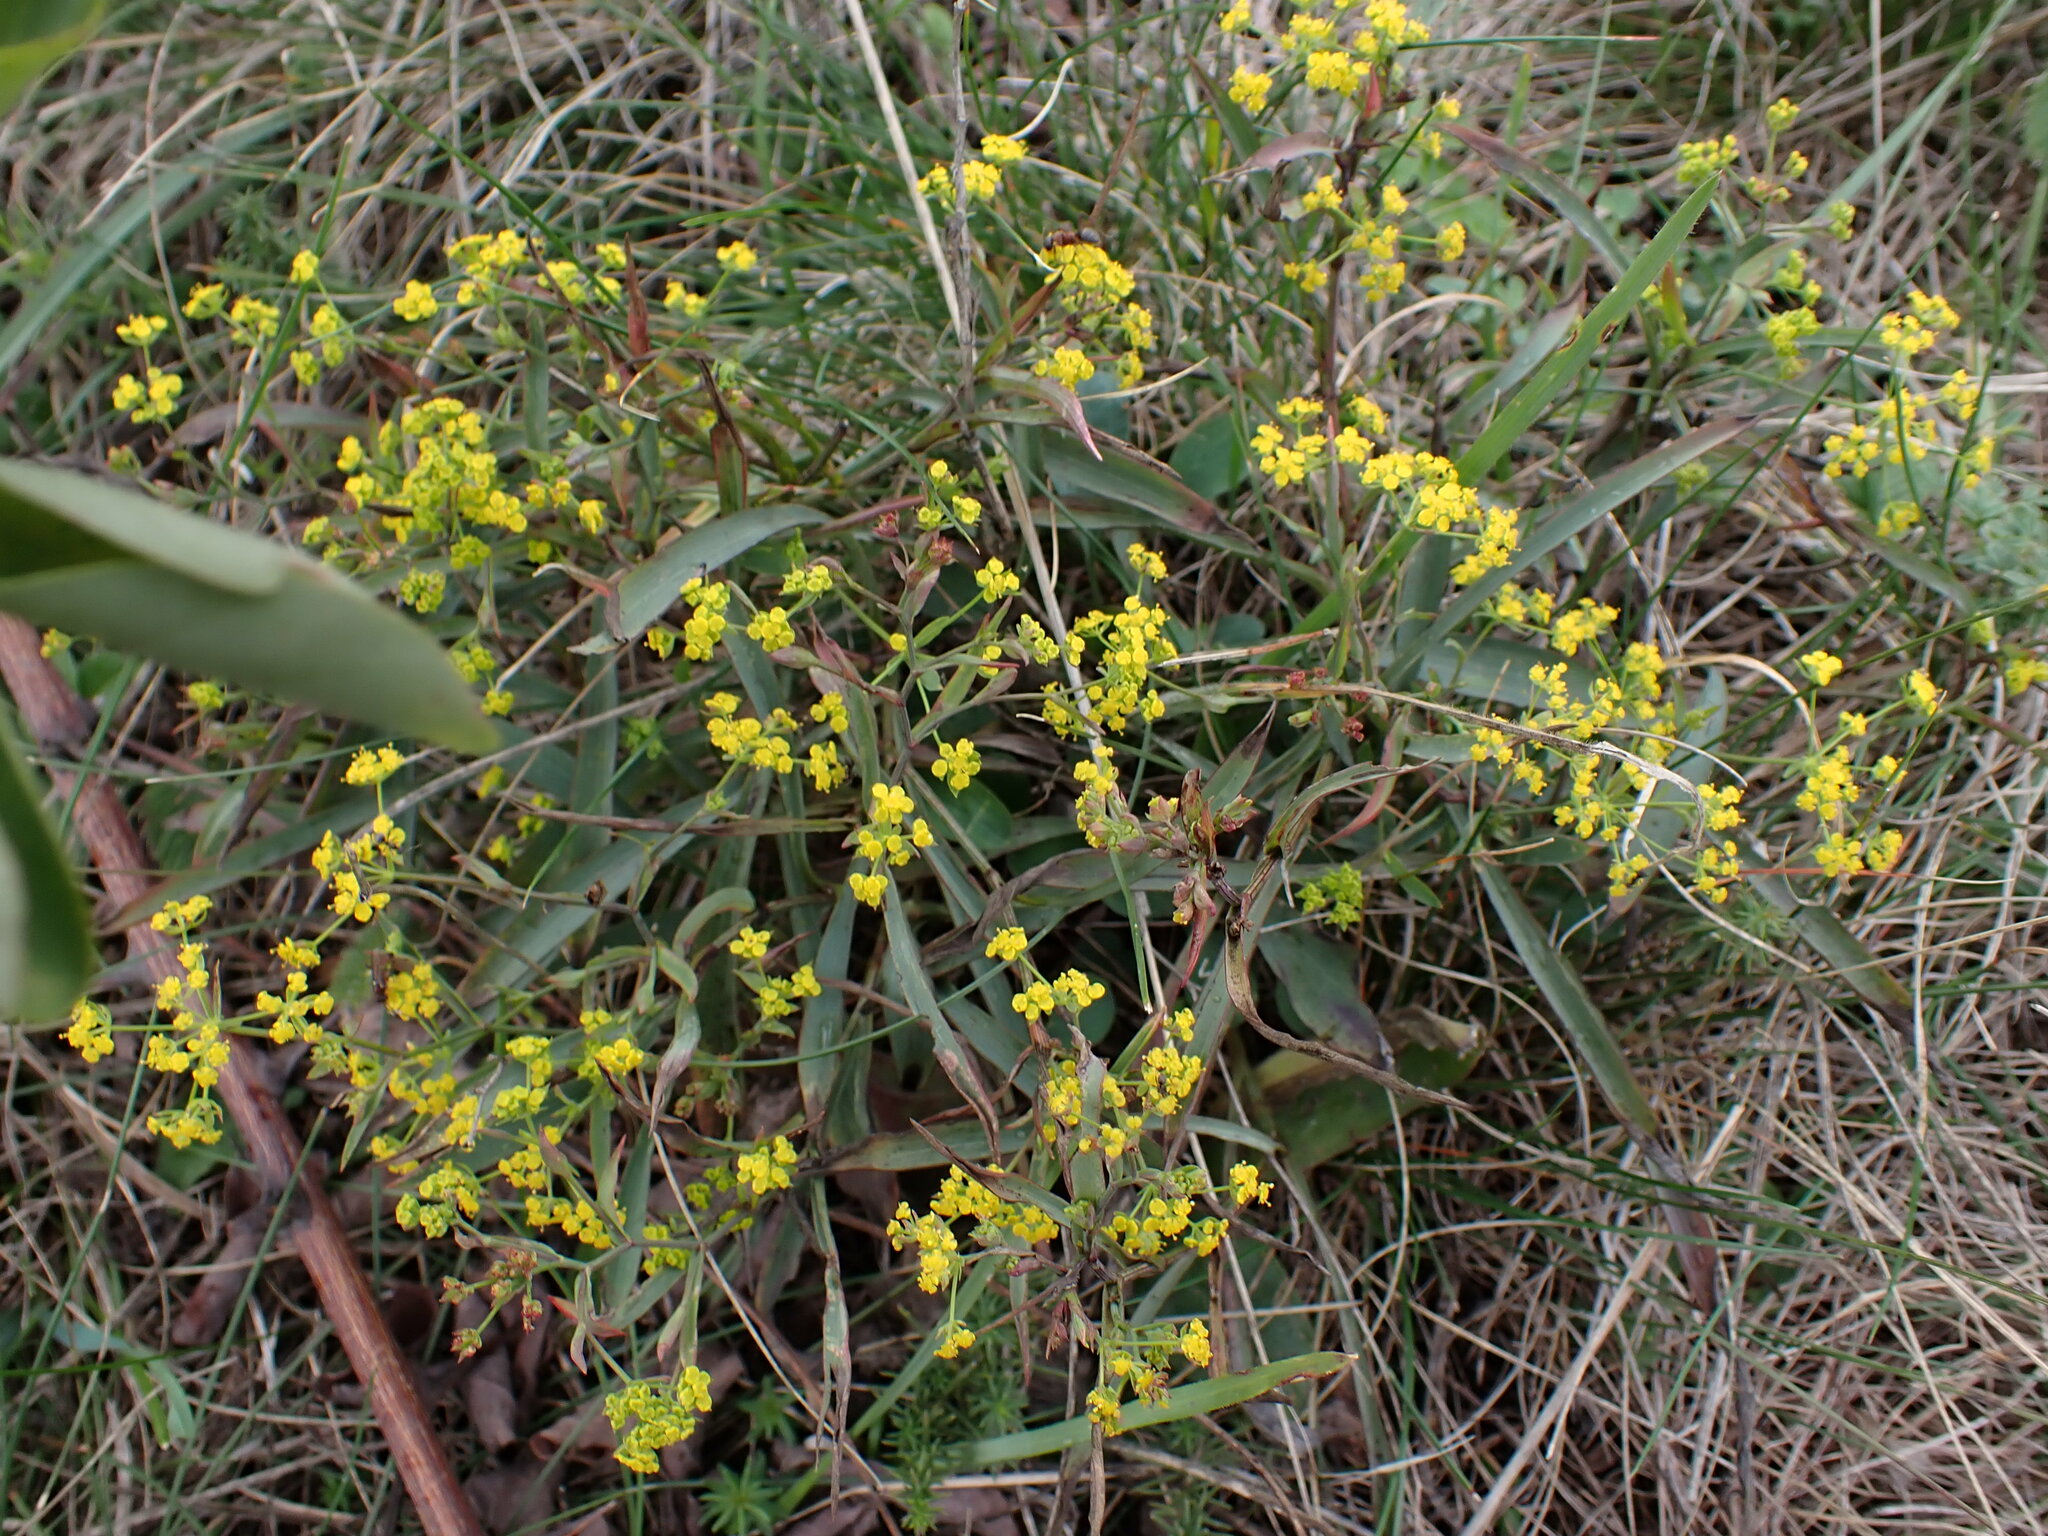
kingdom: Plantae
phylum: Tracheophyta
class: Magnoliopsida
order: Apiales
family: Apiaceae
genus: Bupleurum
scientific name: Bupleurum falcatum
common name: Sickle-leaved hare's-ear
